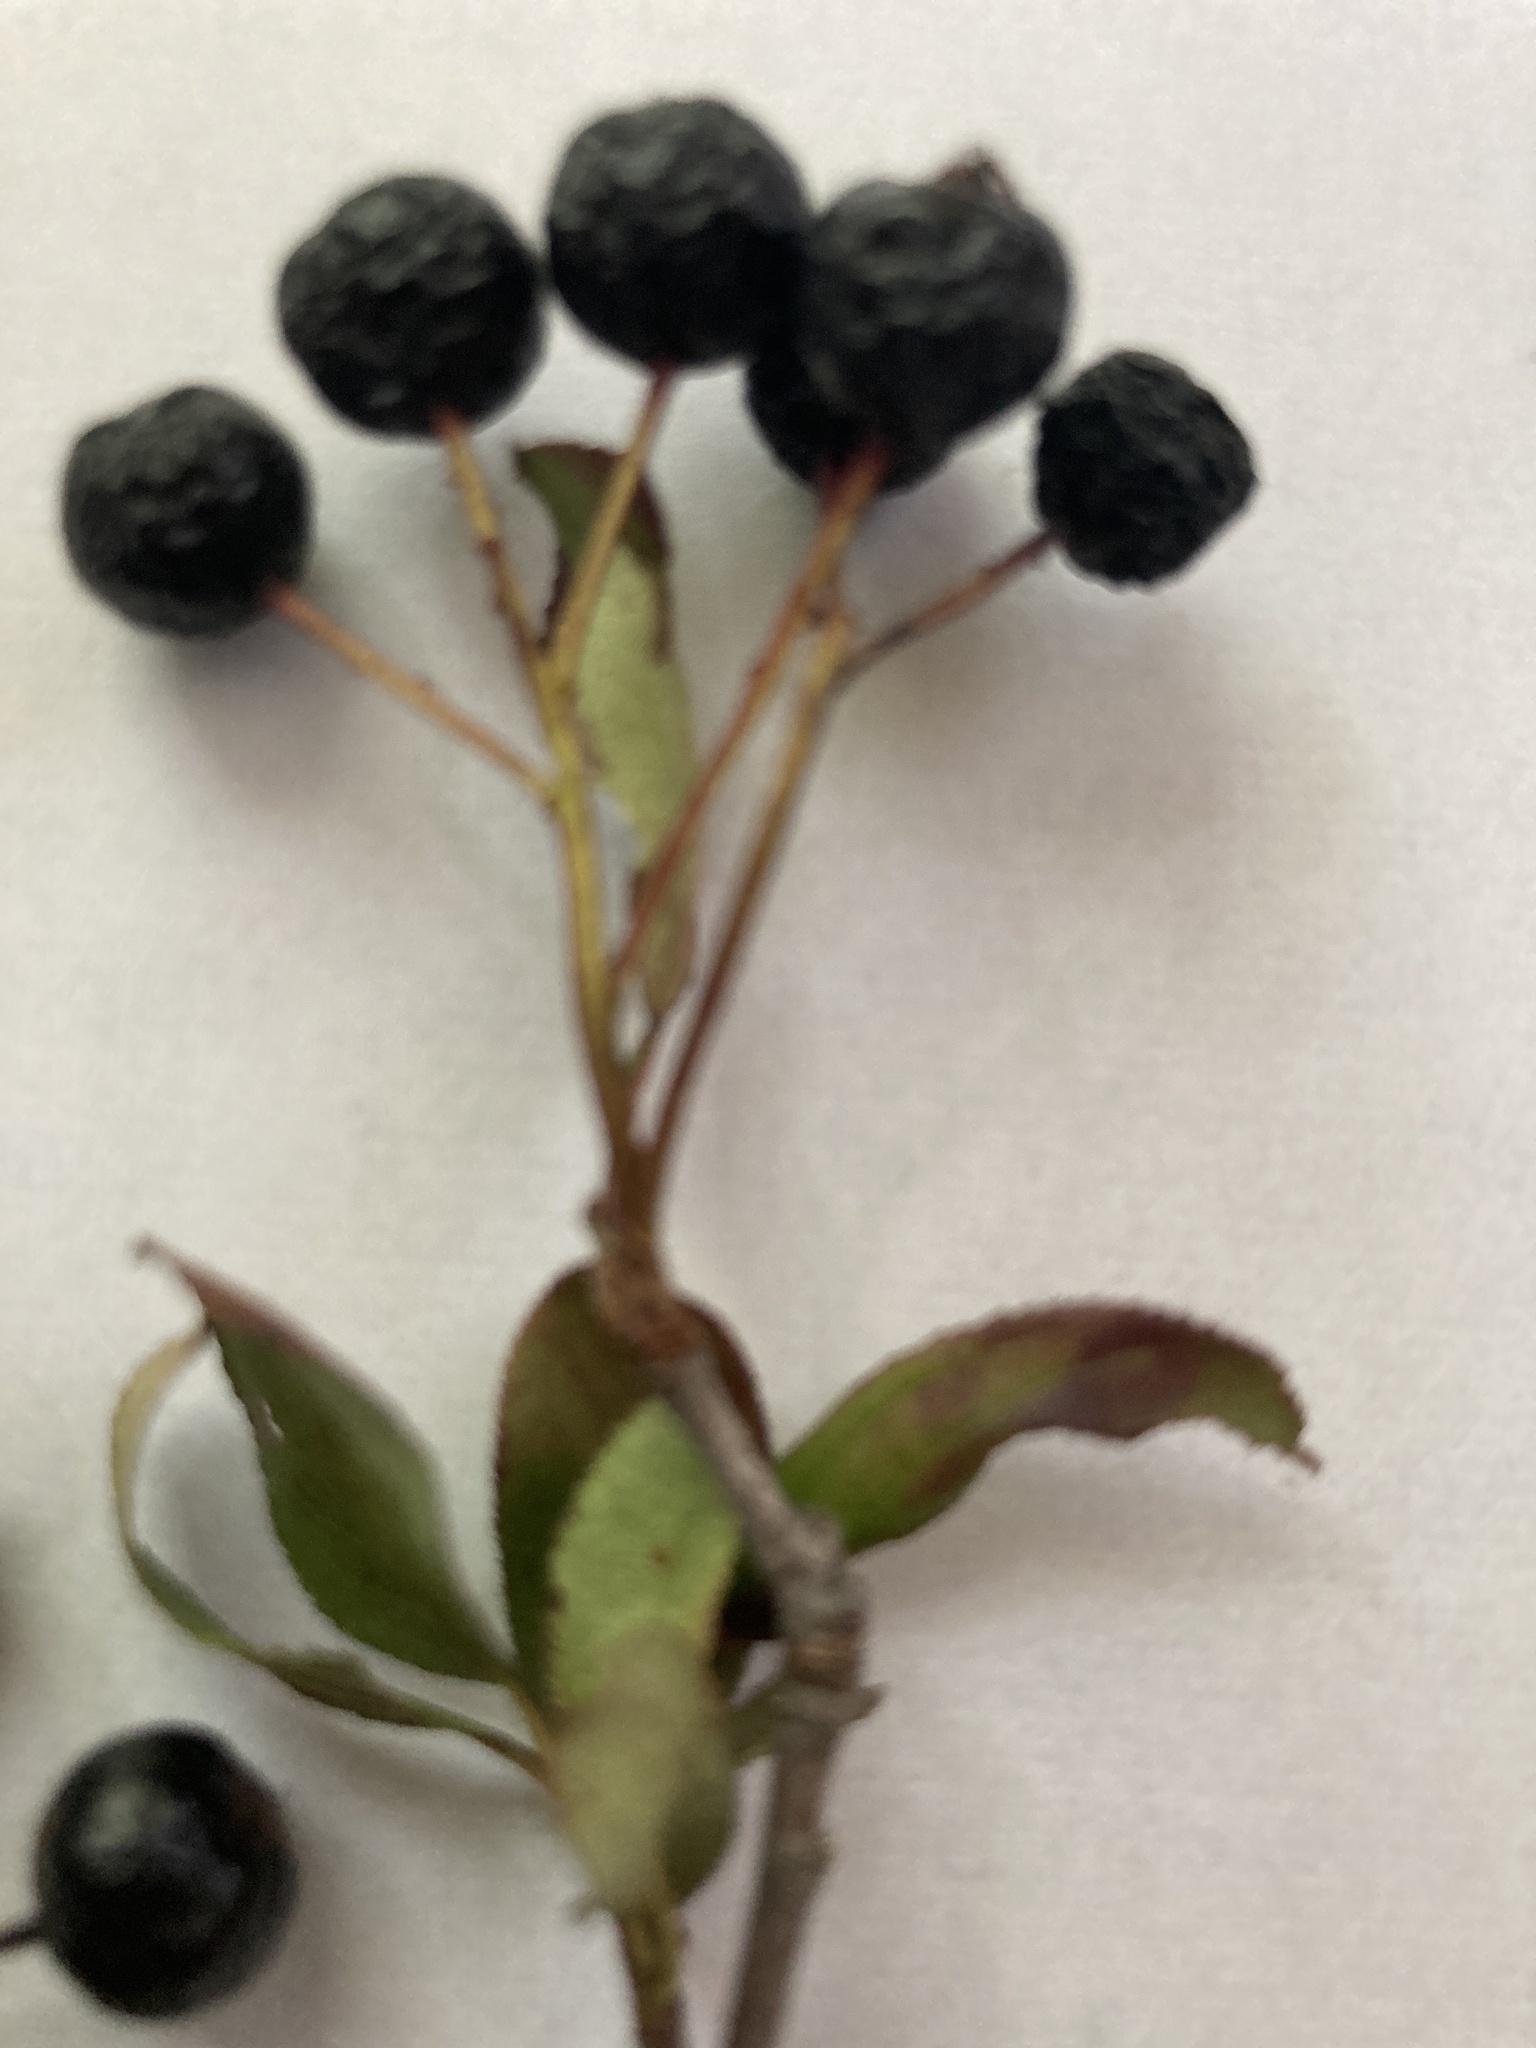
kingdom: Plantae
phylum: Tracheophyta
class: Magnoliopsida
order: Rosales
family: Rosaceae
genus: Aronia
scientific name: Aronia melanocarpa
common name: Black chokeberry
